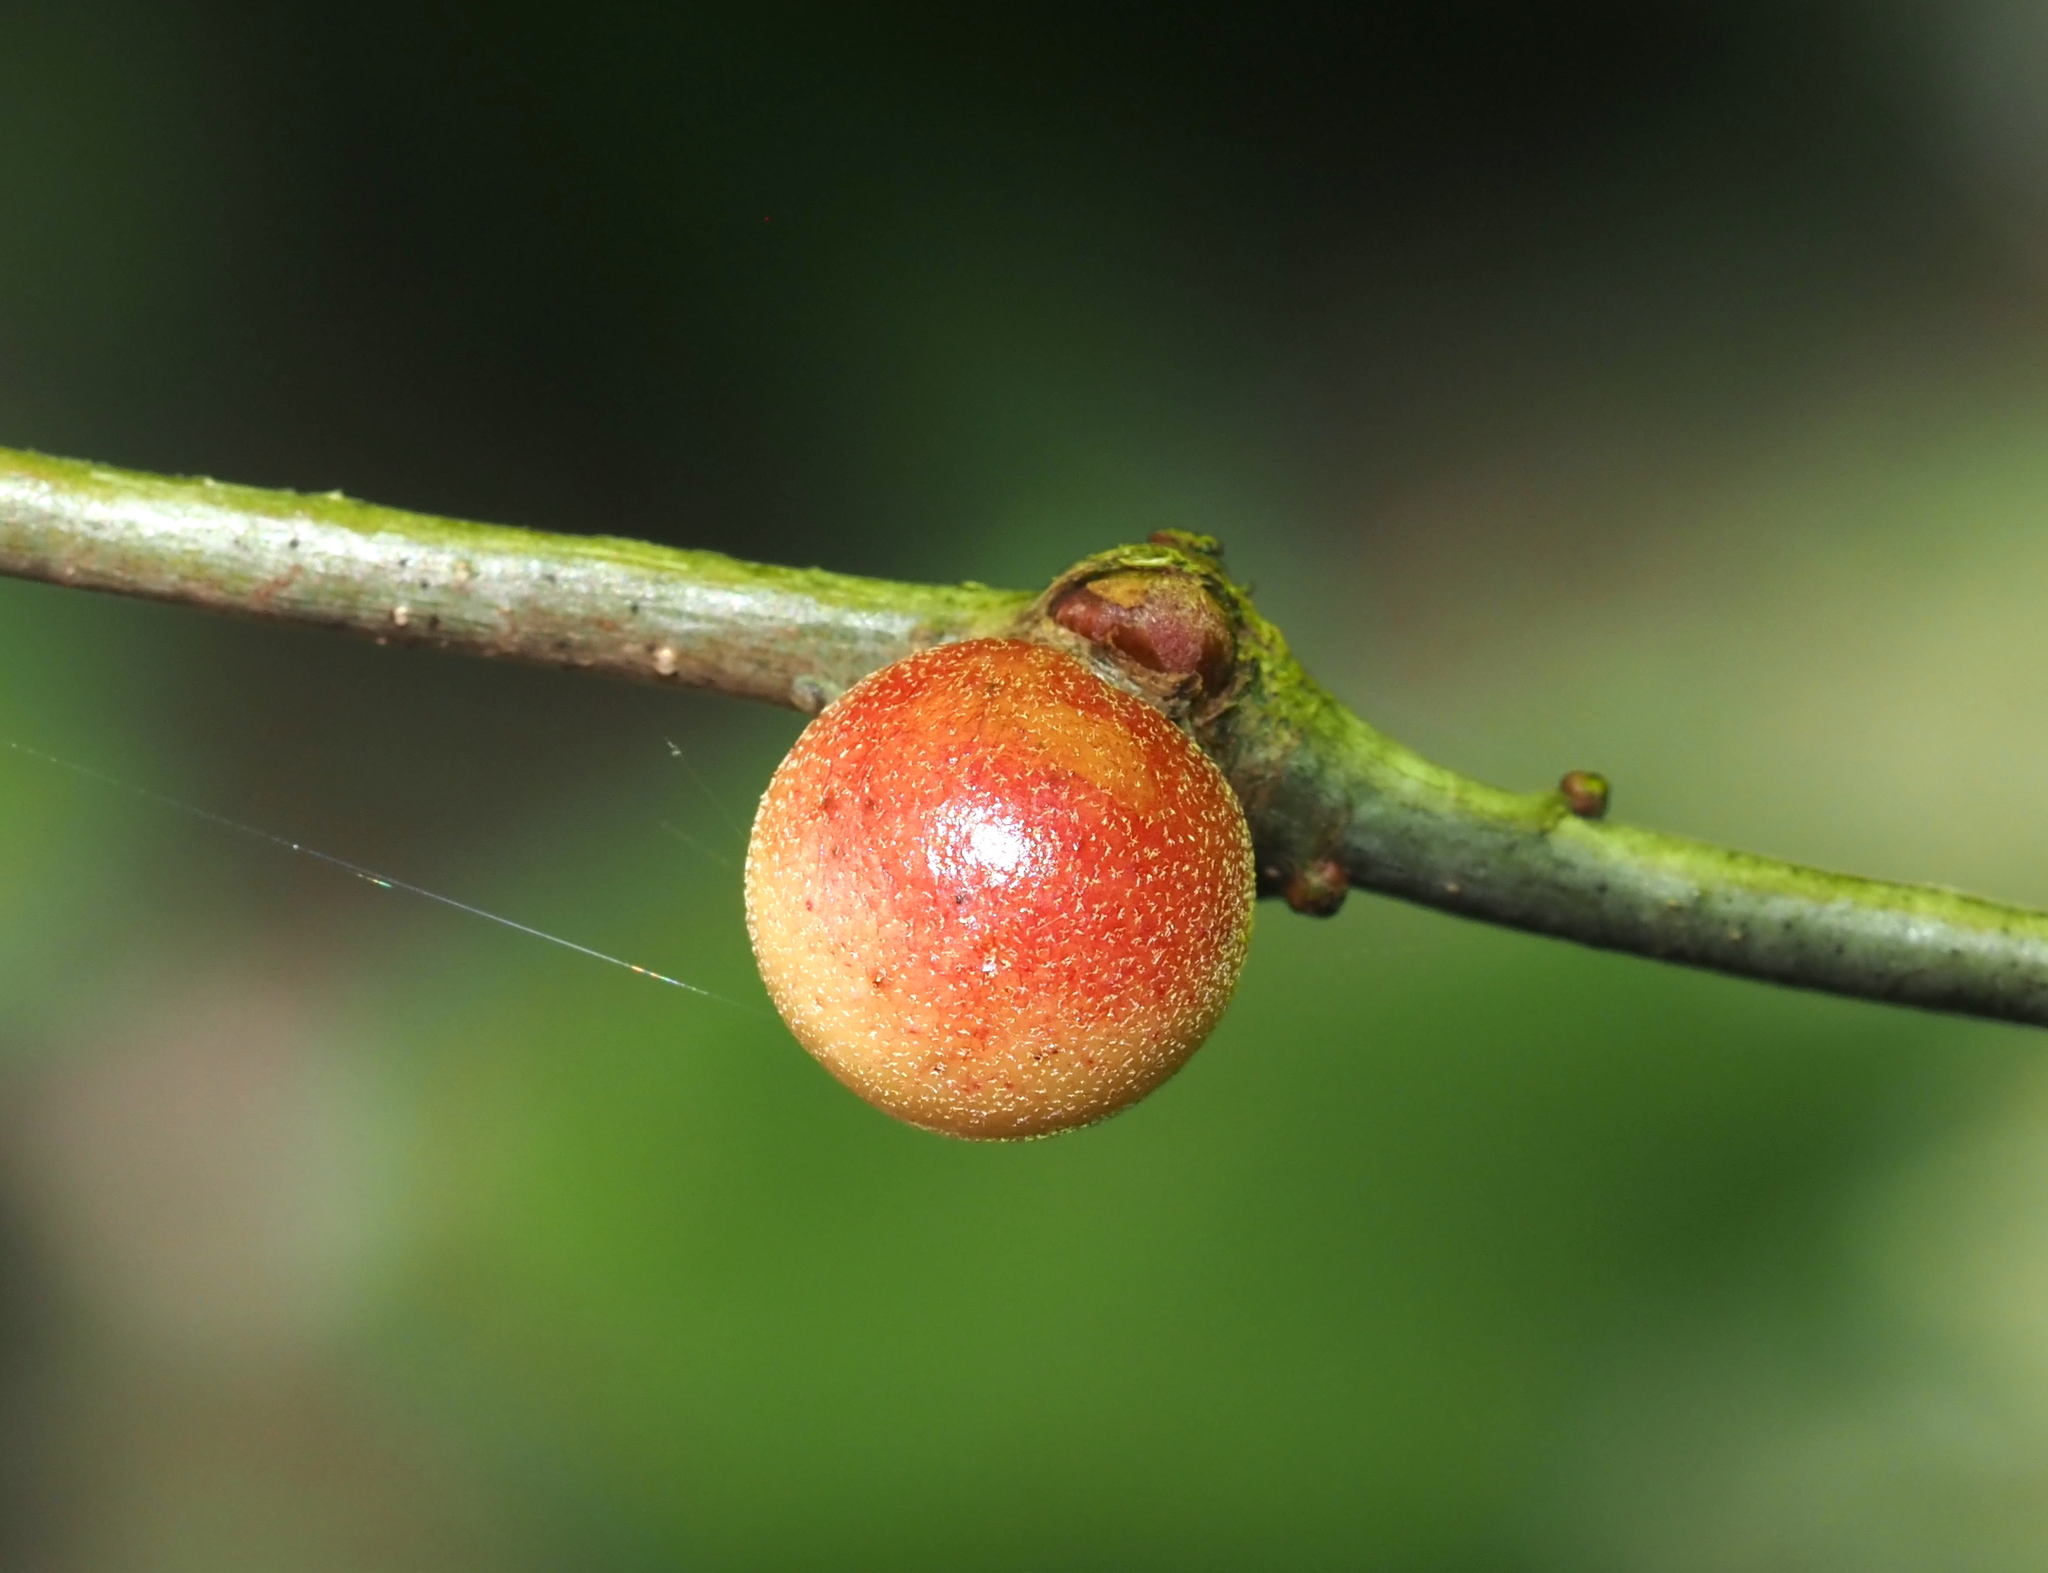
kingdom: Animalia
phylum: Arthropoda
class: Insecta
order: Hymenoptera
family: Cynipidae
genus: Disholcaspis
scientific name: Disholcaspis quercusglobulus
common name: Round bullet gall wasp
